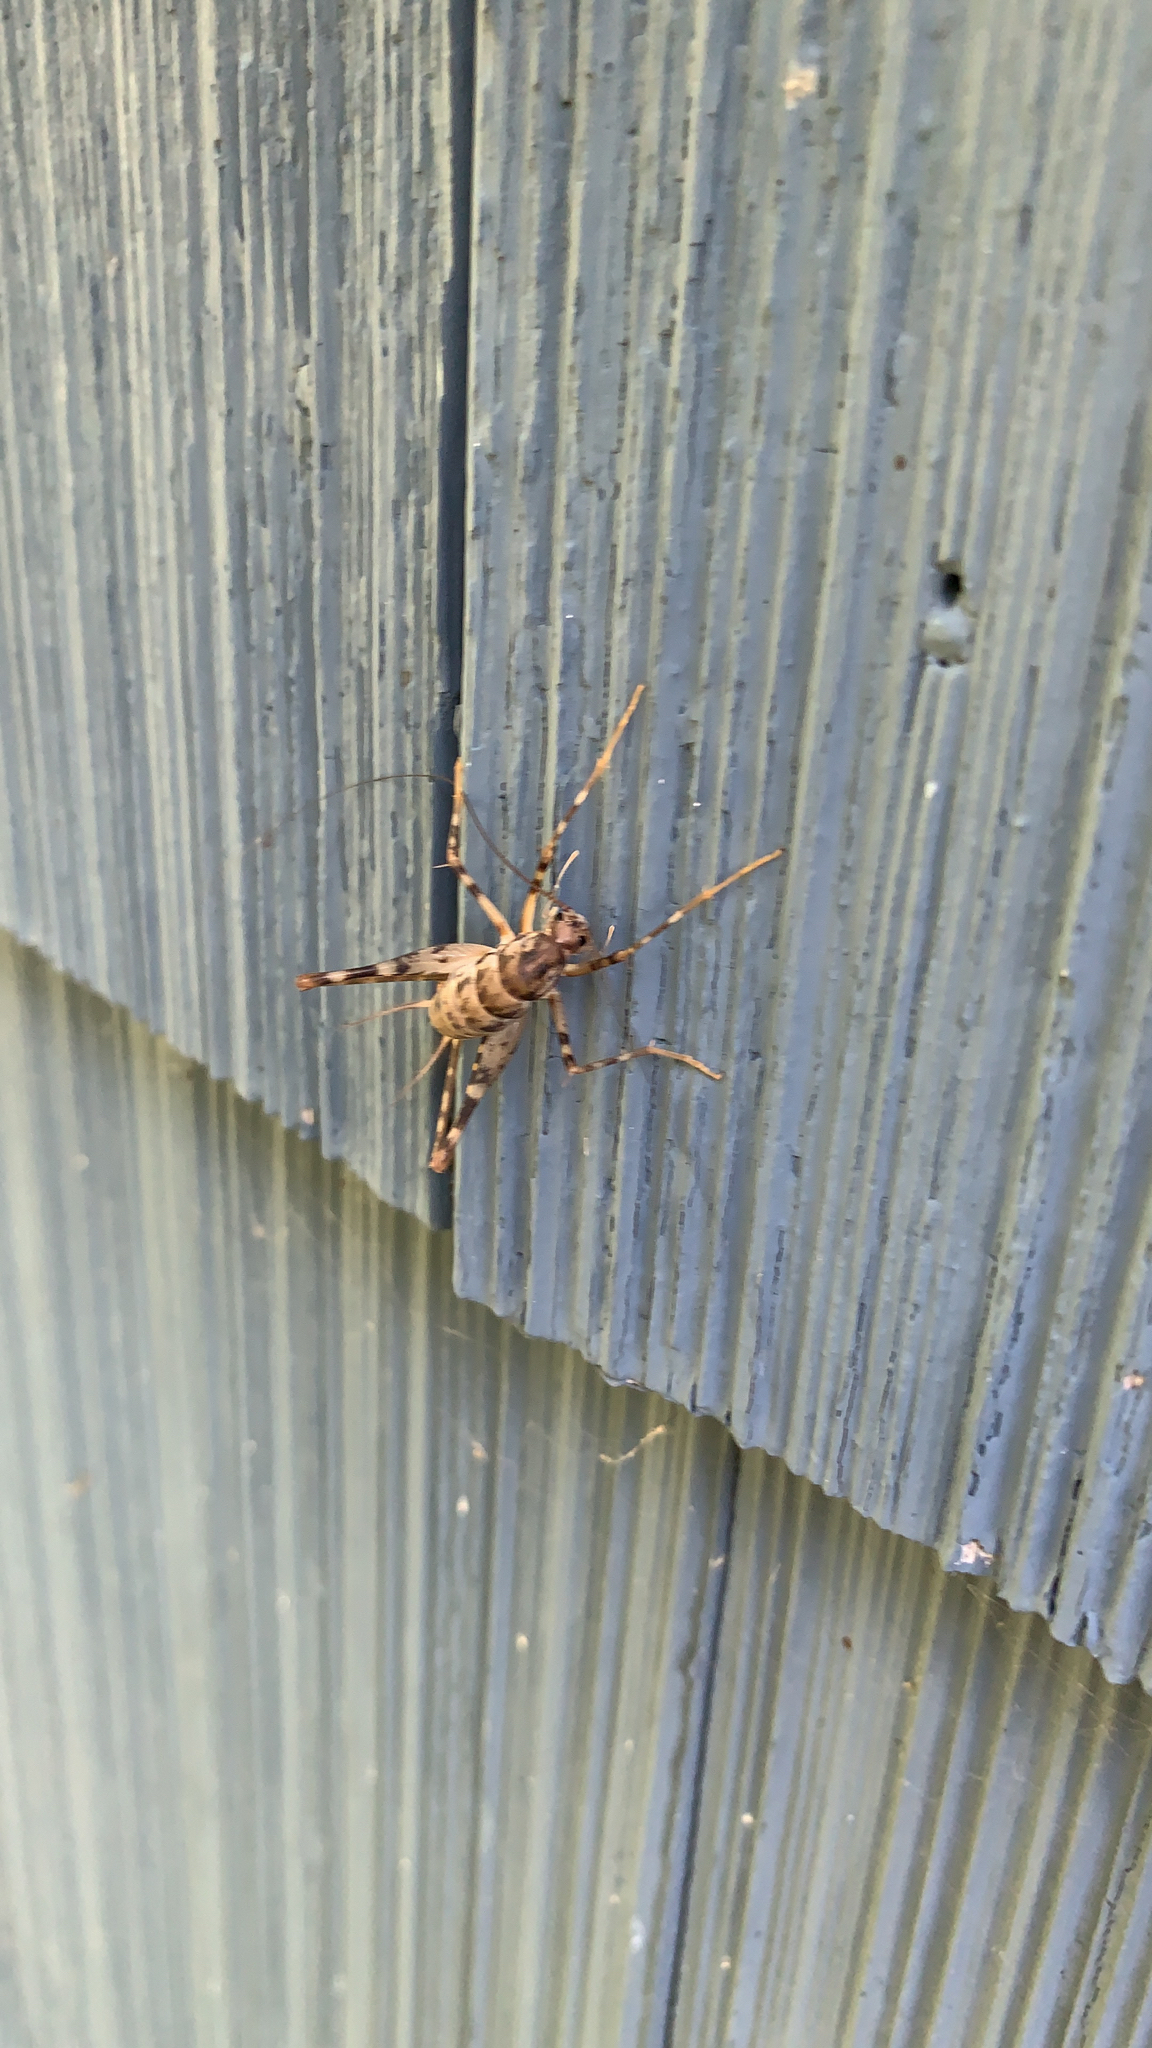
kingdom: Animalia
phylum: Arthropoda
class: Insecta
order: Orthoptera
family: Rhaphidophoridae
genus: Tachycines
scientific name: Tachycines asynamorus
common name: Greenhouse camel cricket
